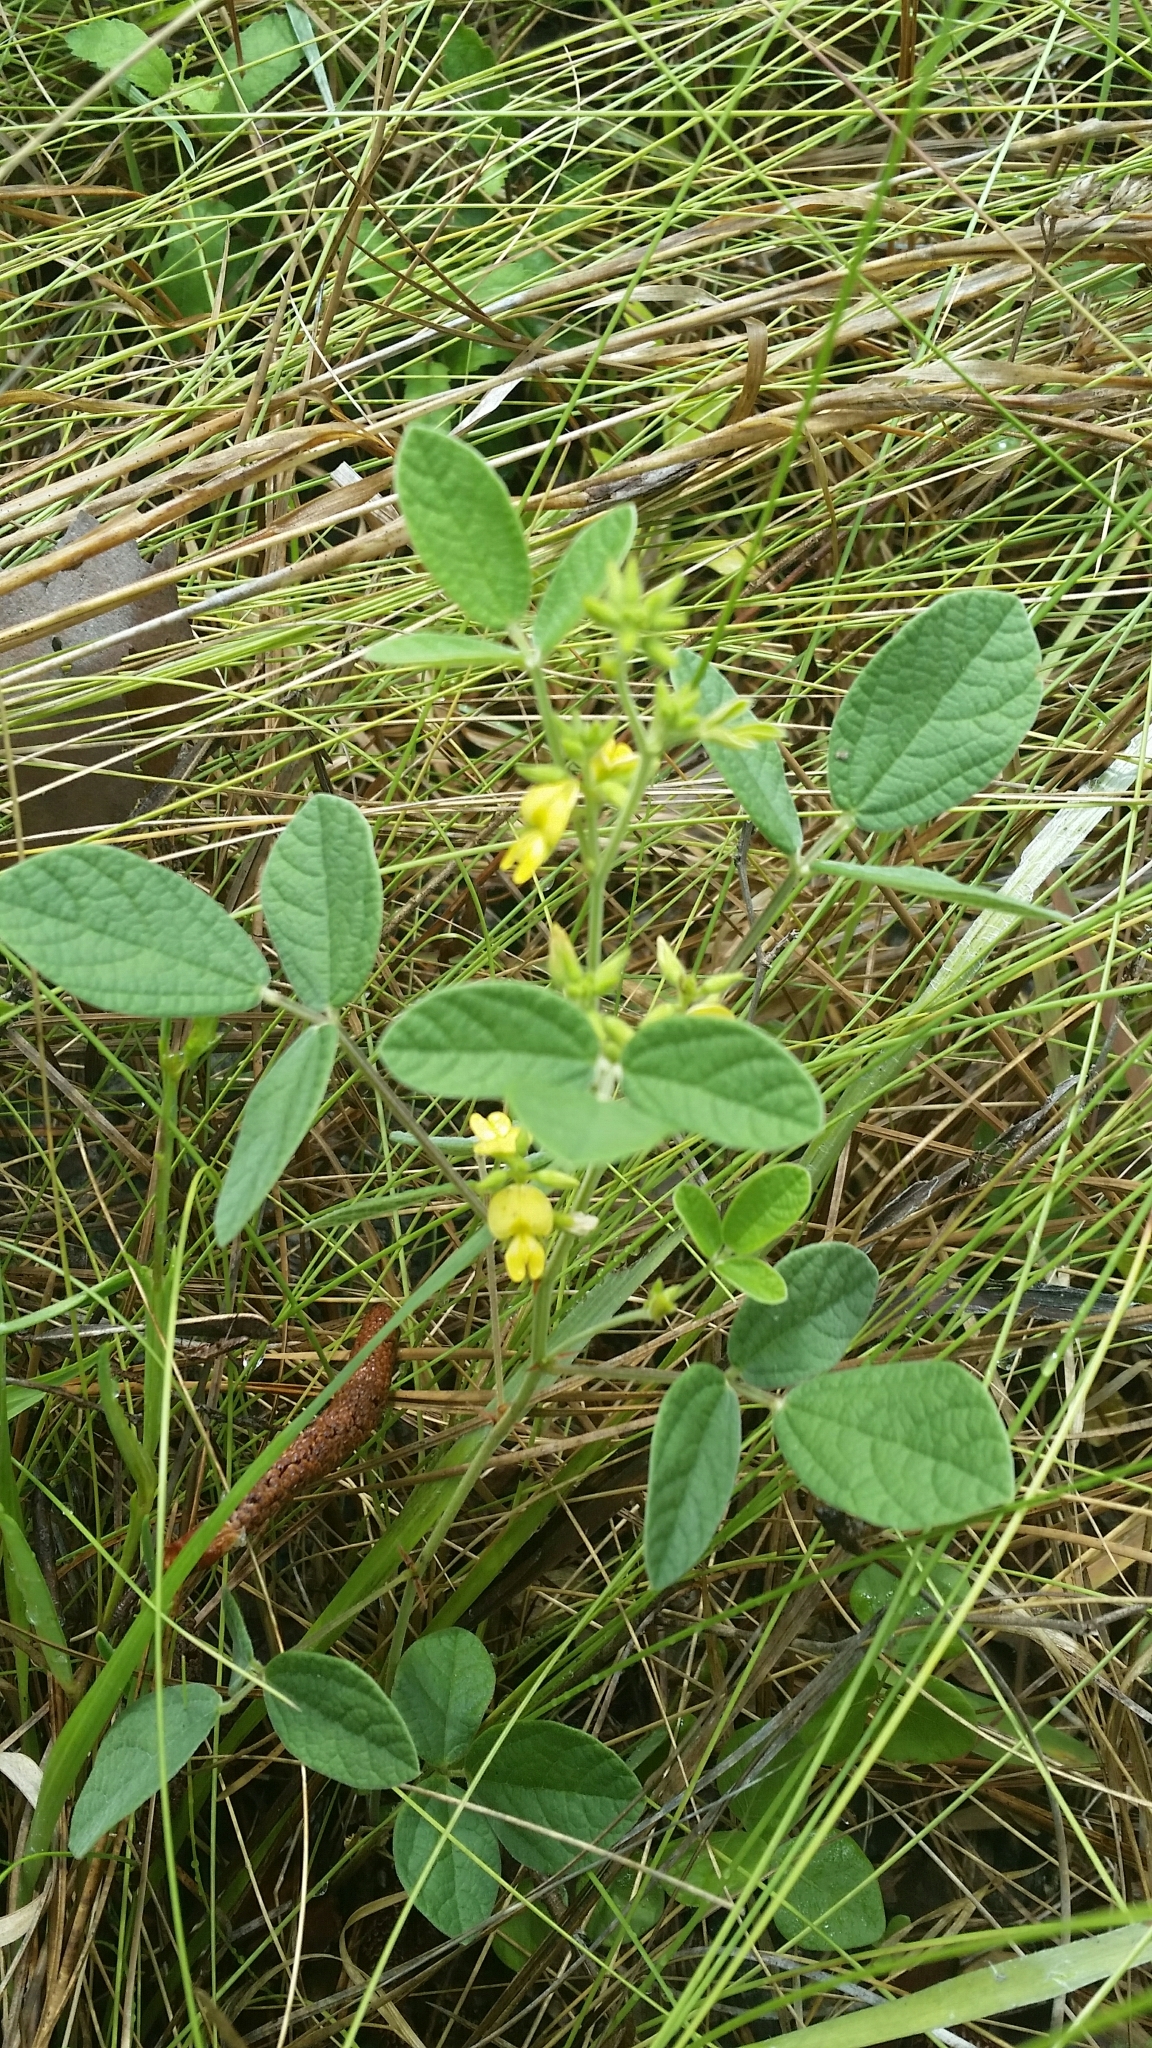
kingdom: Plantae
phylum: Tracheophyta
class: Magnoliopsida
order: Fabales
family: Fabaceae
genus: Rhynchosia
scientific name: Rhynchosia tomentosa
